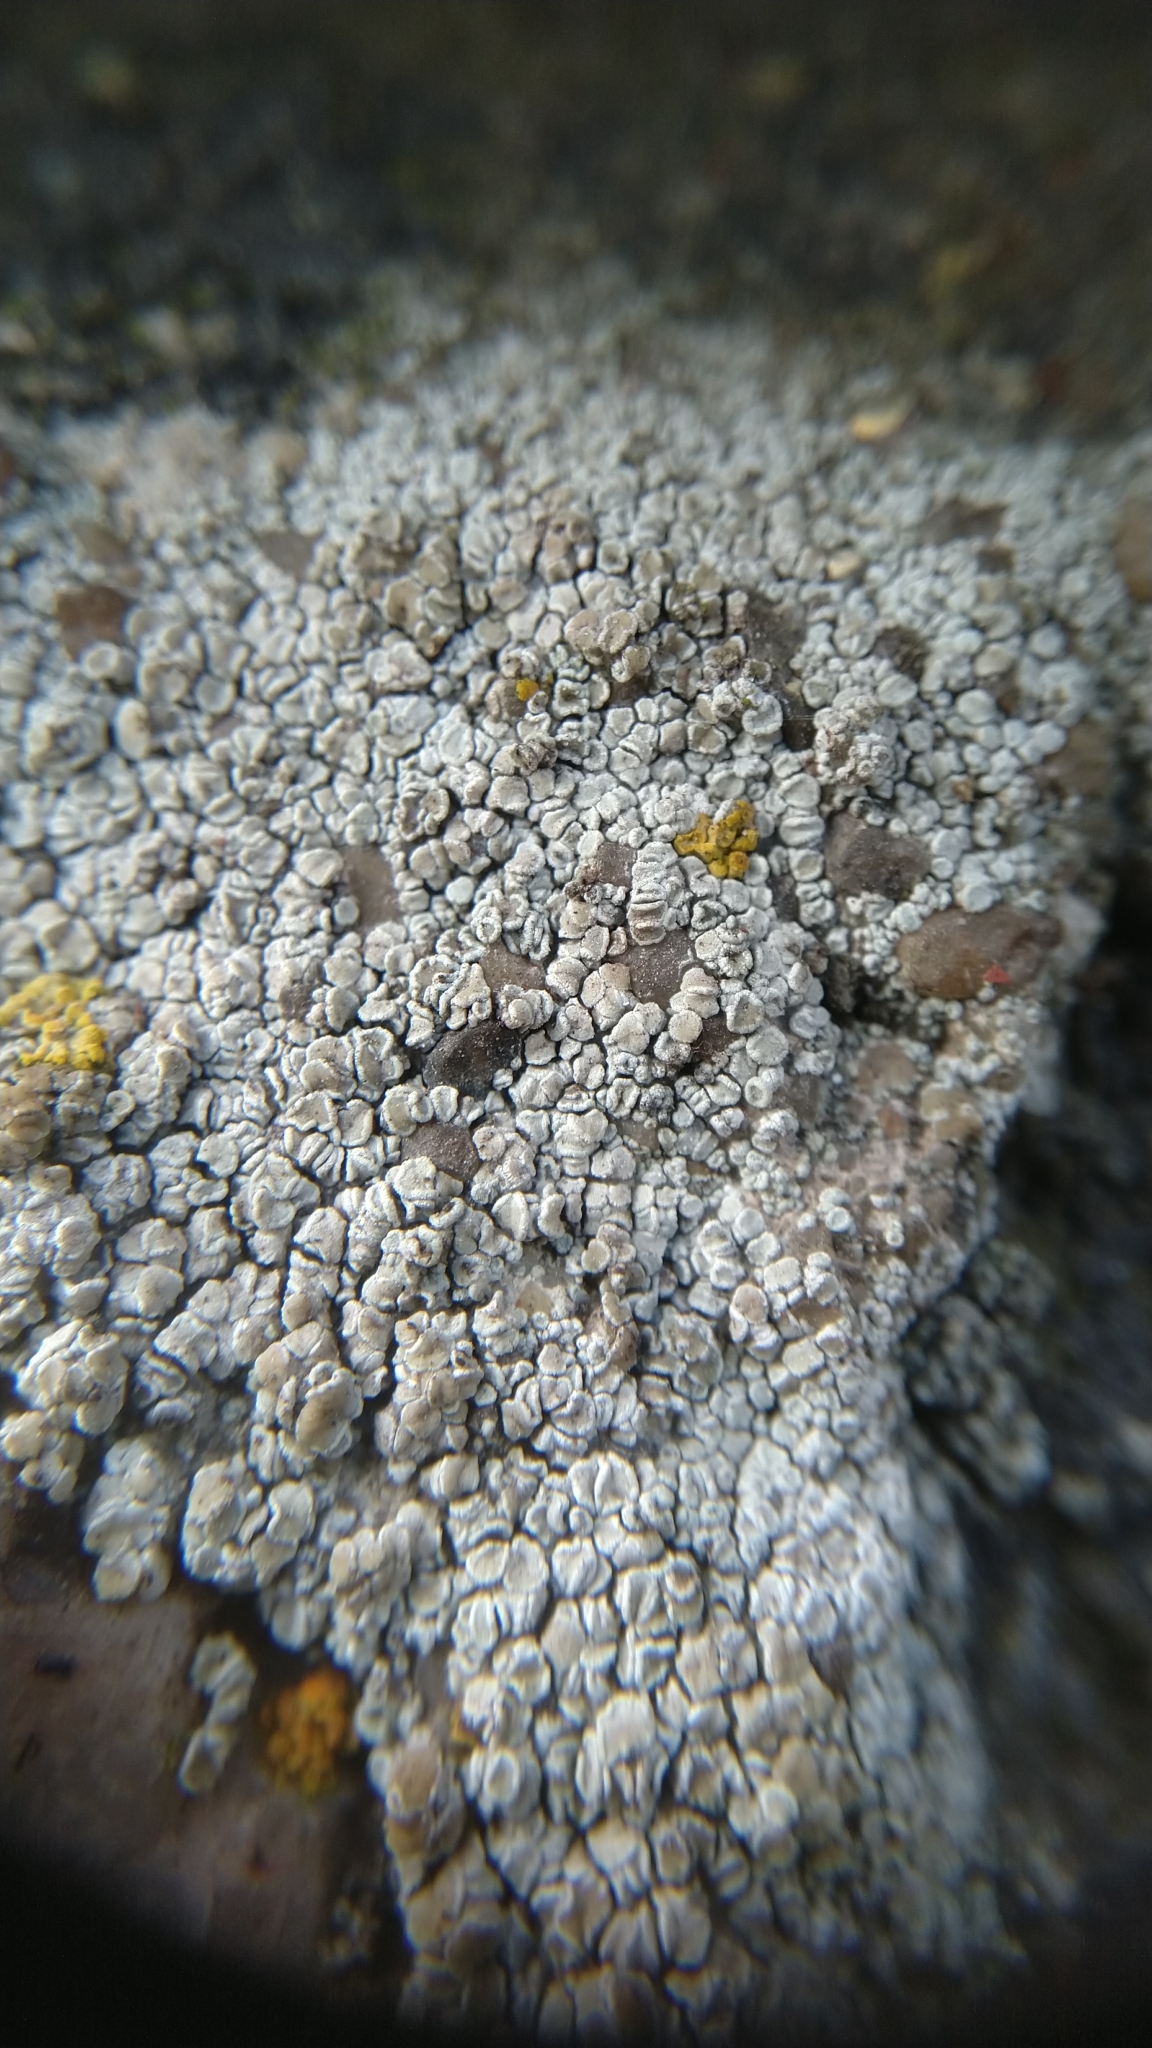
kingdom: Fungi
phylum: Ascomycota
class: Lecanoromycetes
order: Lecanorales
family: Lecanoraceae
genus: Polyozosia
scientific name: Polyozosia albescens
